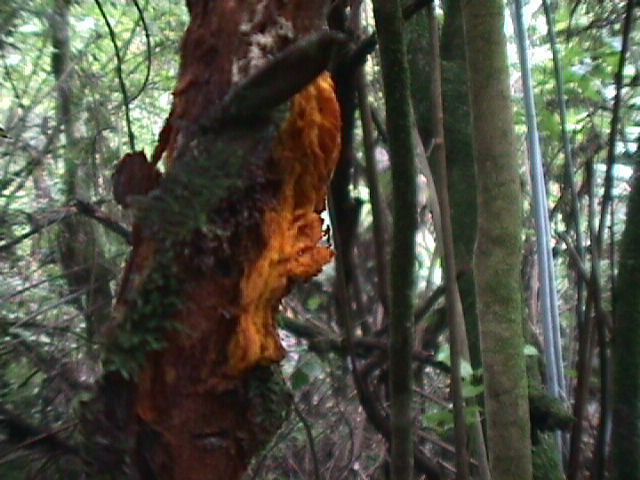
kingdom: Plantae
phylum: Tracheophyta
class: Magnoliopsida
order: Gentianales
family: Rubiaceae
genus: Coprosma
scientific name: Coprosma autumnalis
